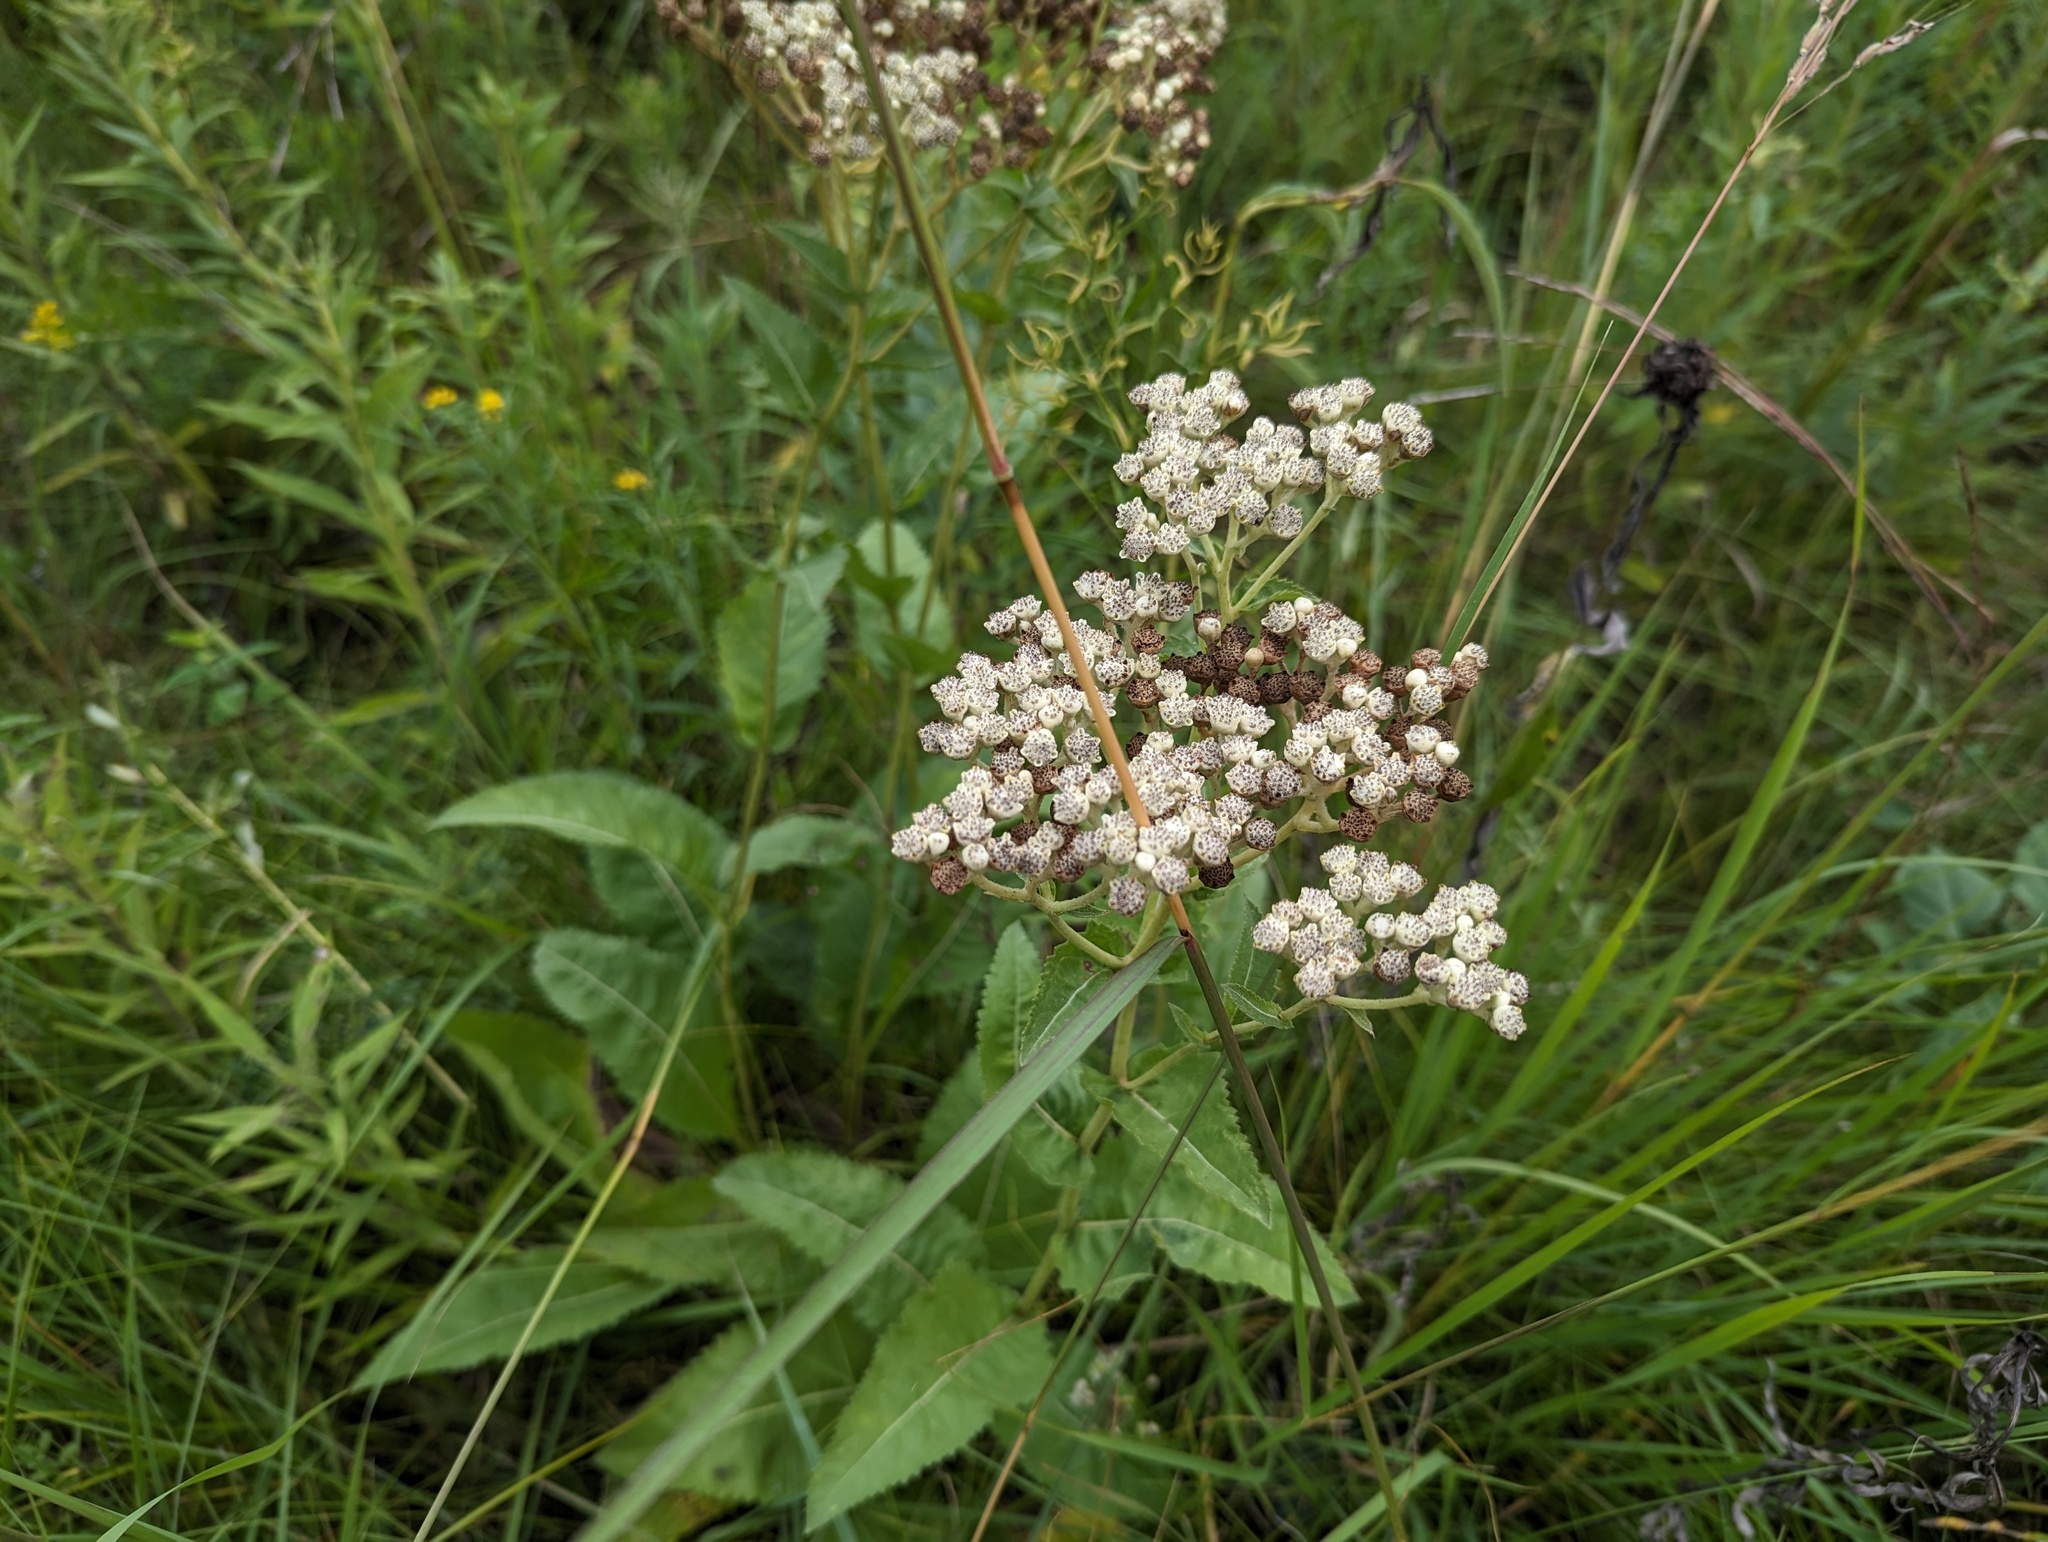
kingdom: Plantae
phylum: Tracheophyta
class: Magnoliopsida
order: Asterales
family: Asteraceae
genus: Parthenium
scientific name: Parthenium integrifolium
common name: American feverfew
